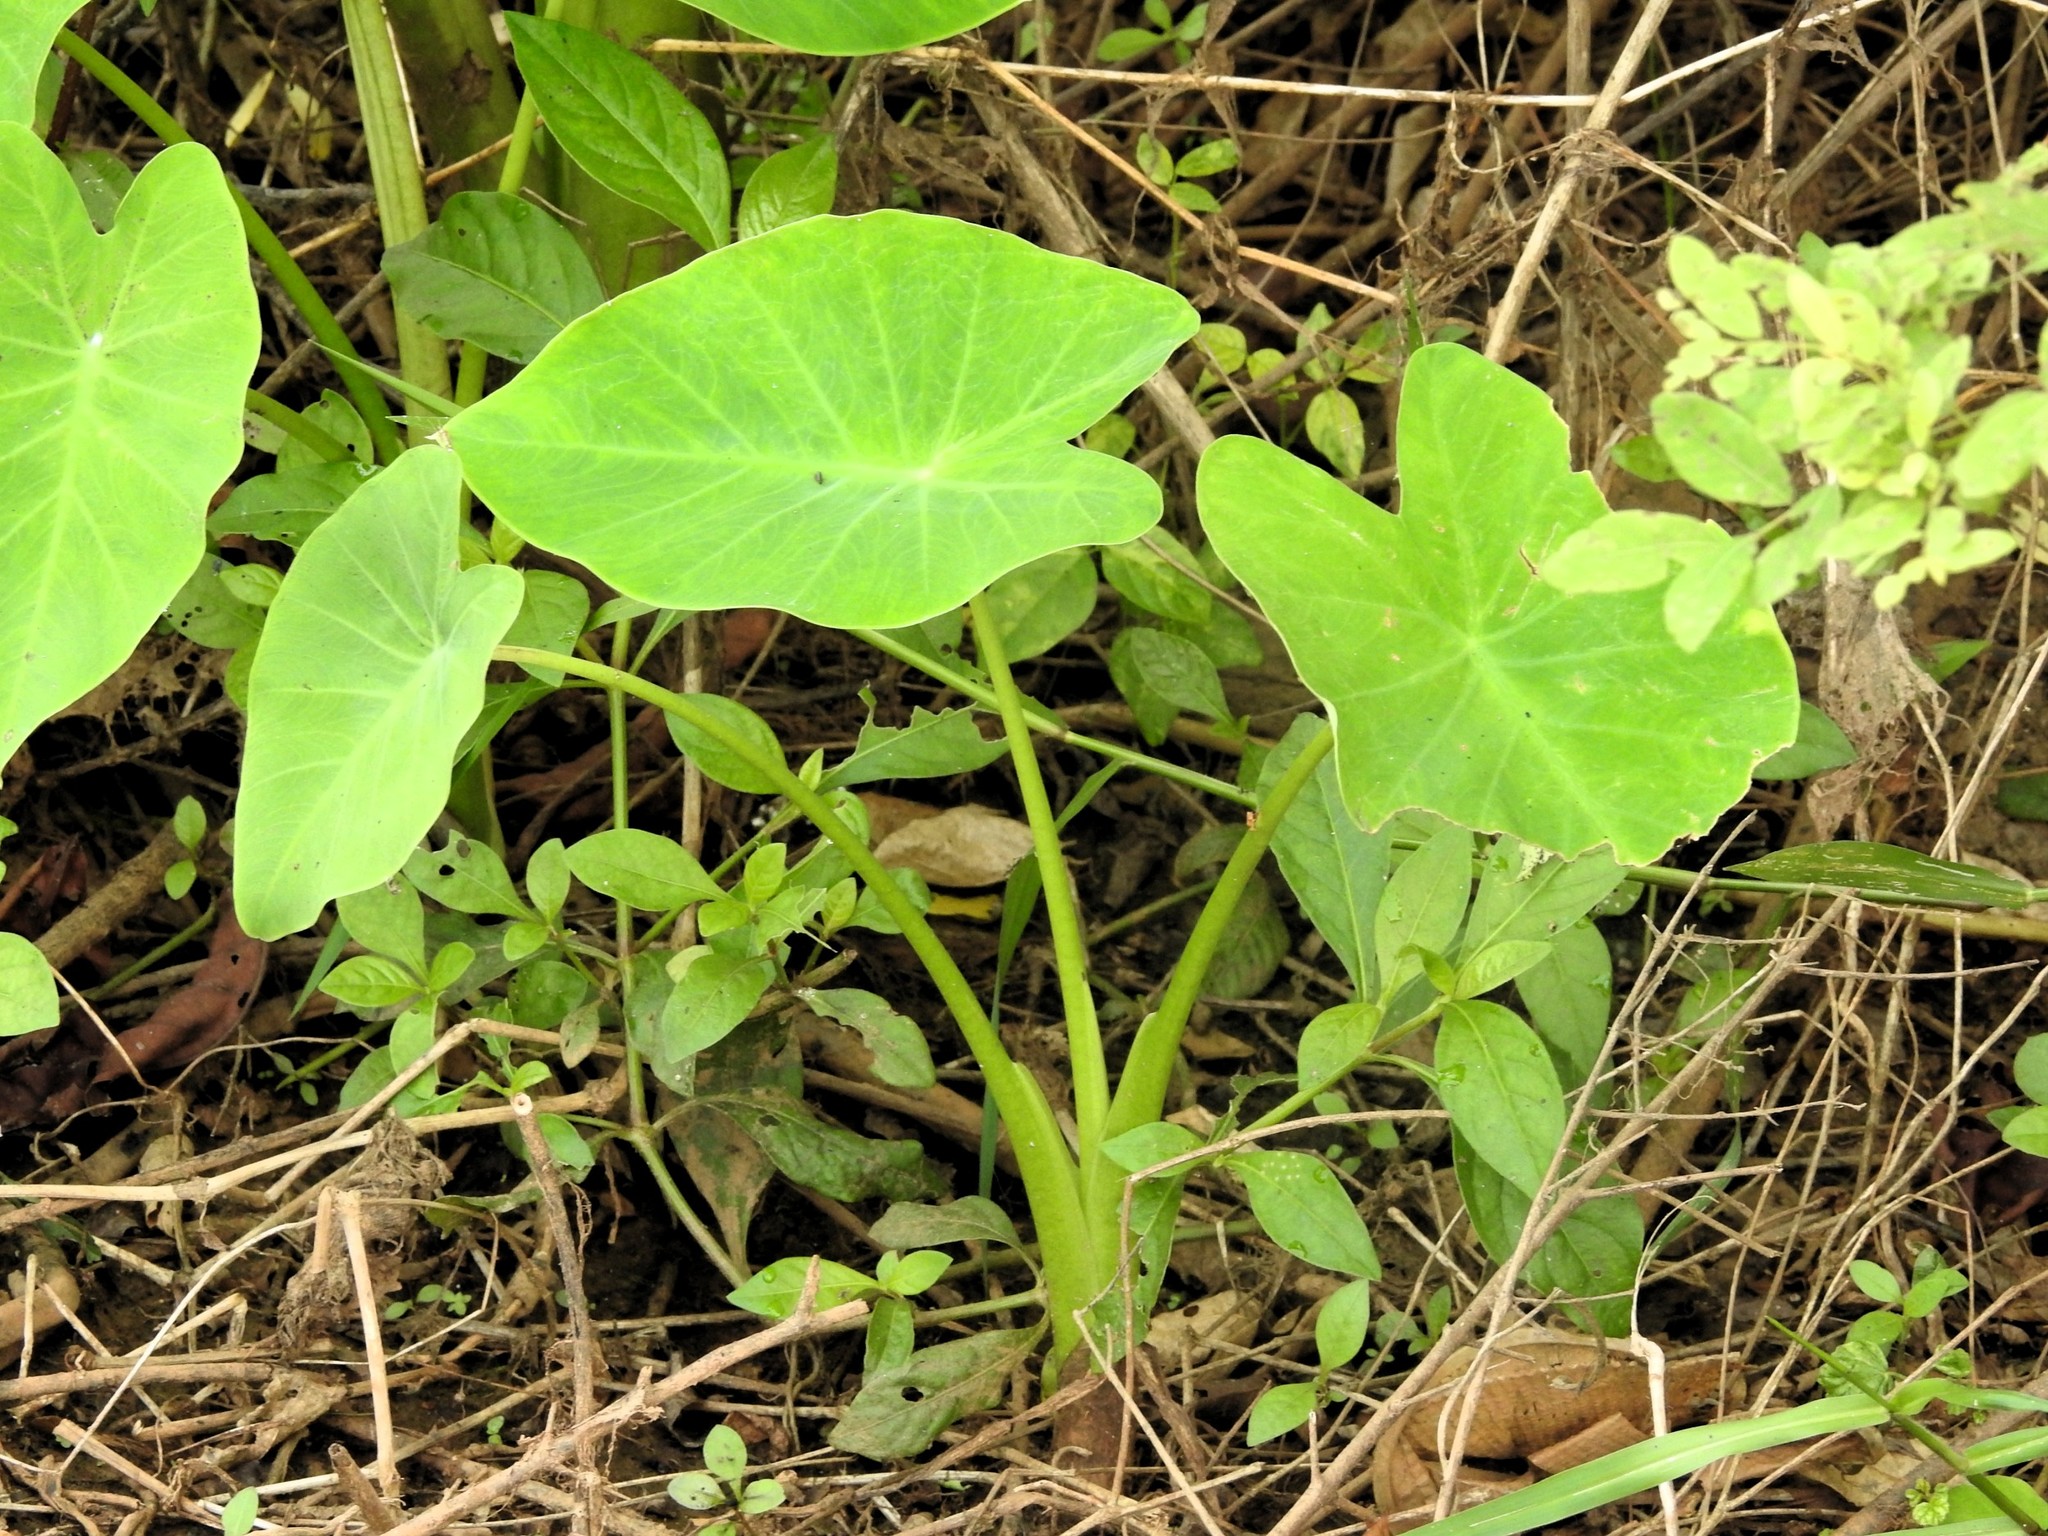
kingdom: Plantae
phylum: Tracheophyta
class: Liliopsida
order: Alismatales
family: Araceae
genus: Colocasia
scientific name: Colocasia esculenta
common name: Taro
